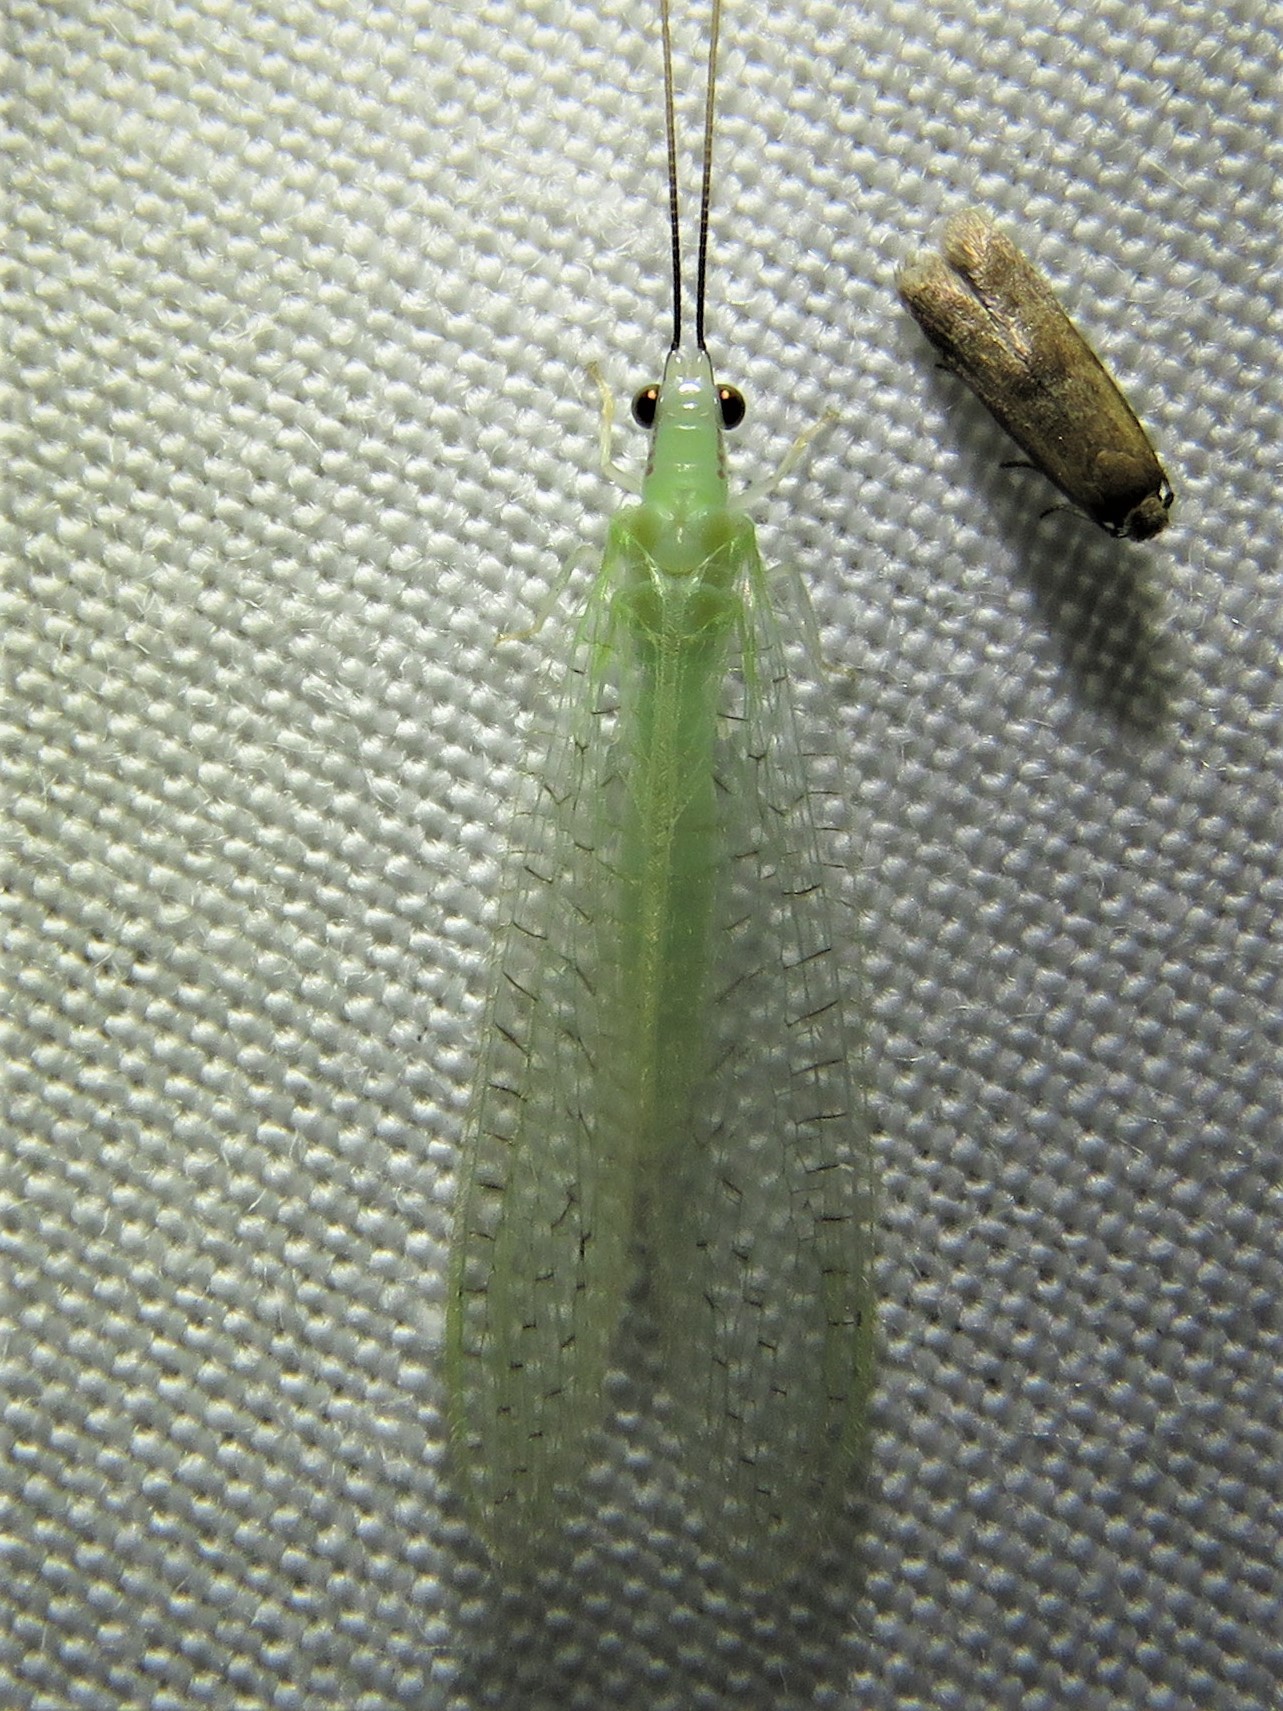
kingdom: Animalia
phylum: Arthropoda
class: Insecta
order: Neuroptera
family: Chrysopidae
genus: Chrysopa
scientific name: Chrysopa nigricornis
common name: Black-horned green lacewing
